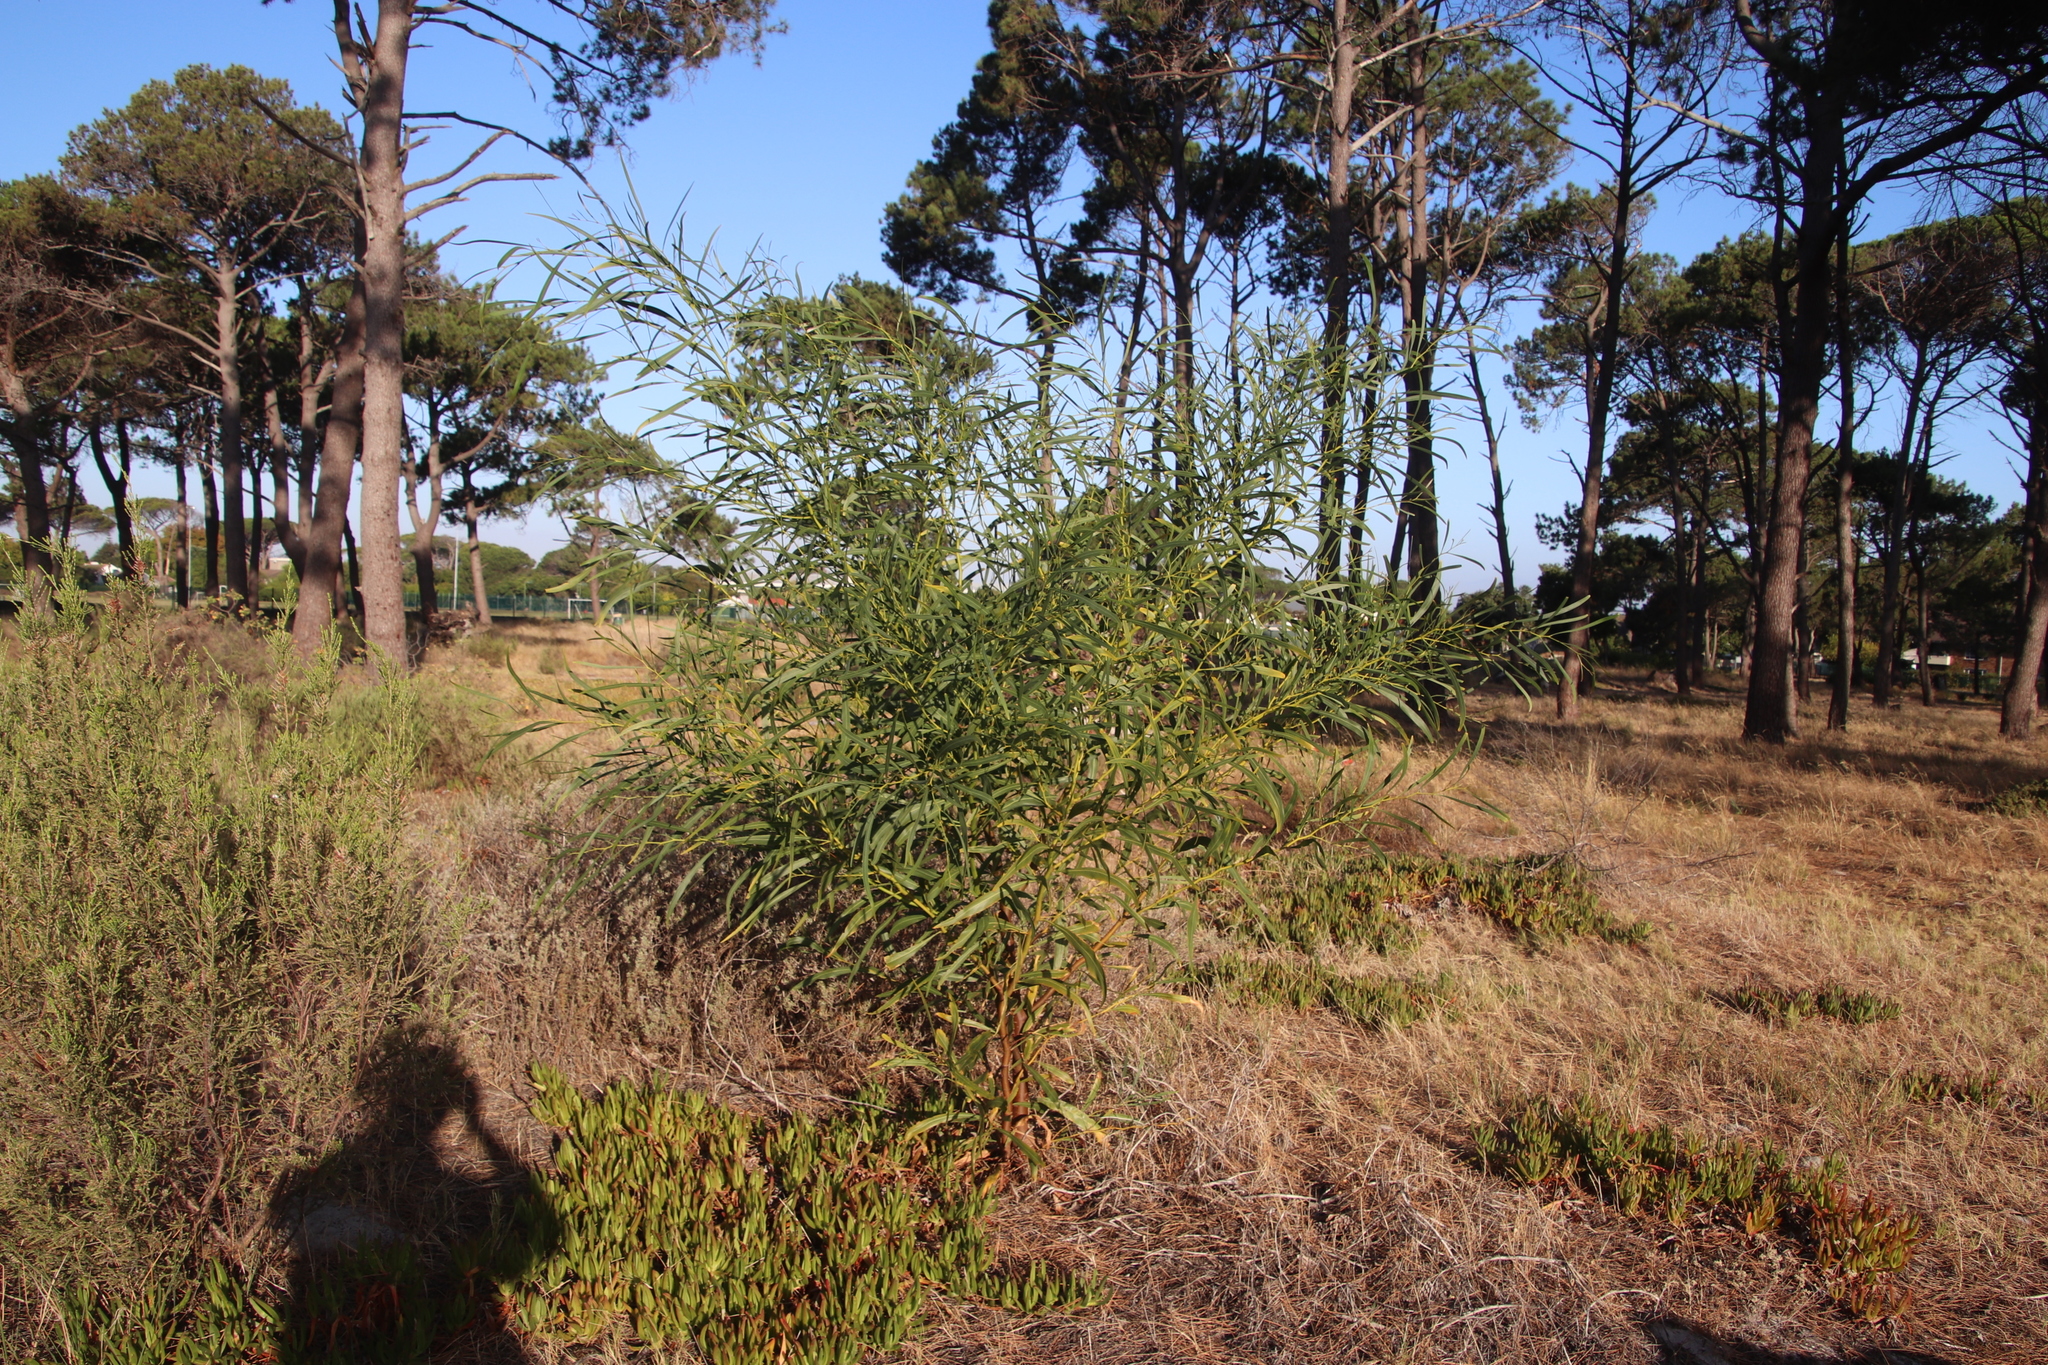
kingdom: Plantae
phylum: Tracheophyta
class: Magnoliopsida
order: Fabales
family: Fabaceae
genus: Acacia
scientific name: Acacia saligna
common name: Orange wattle
